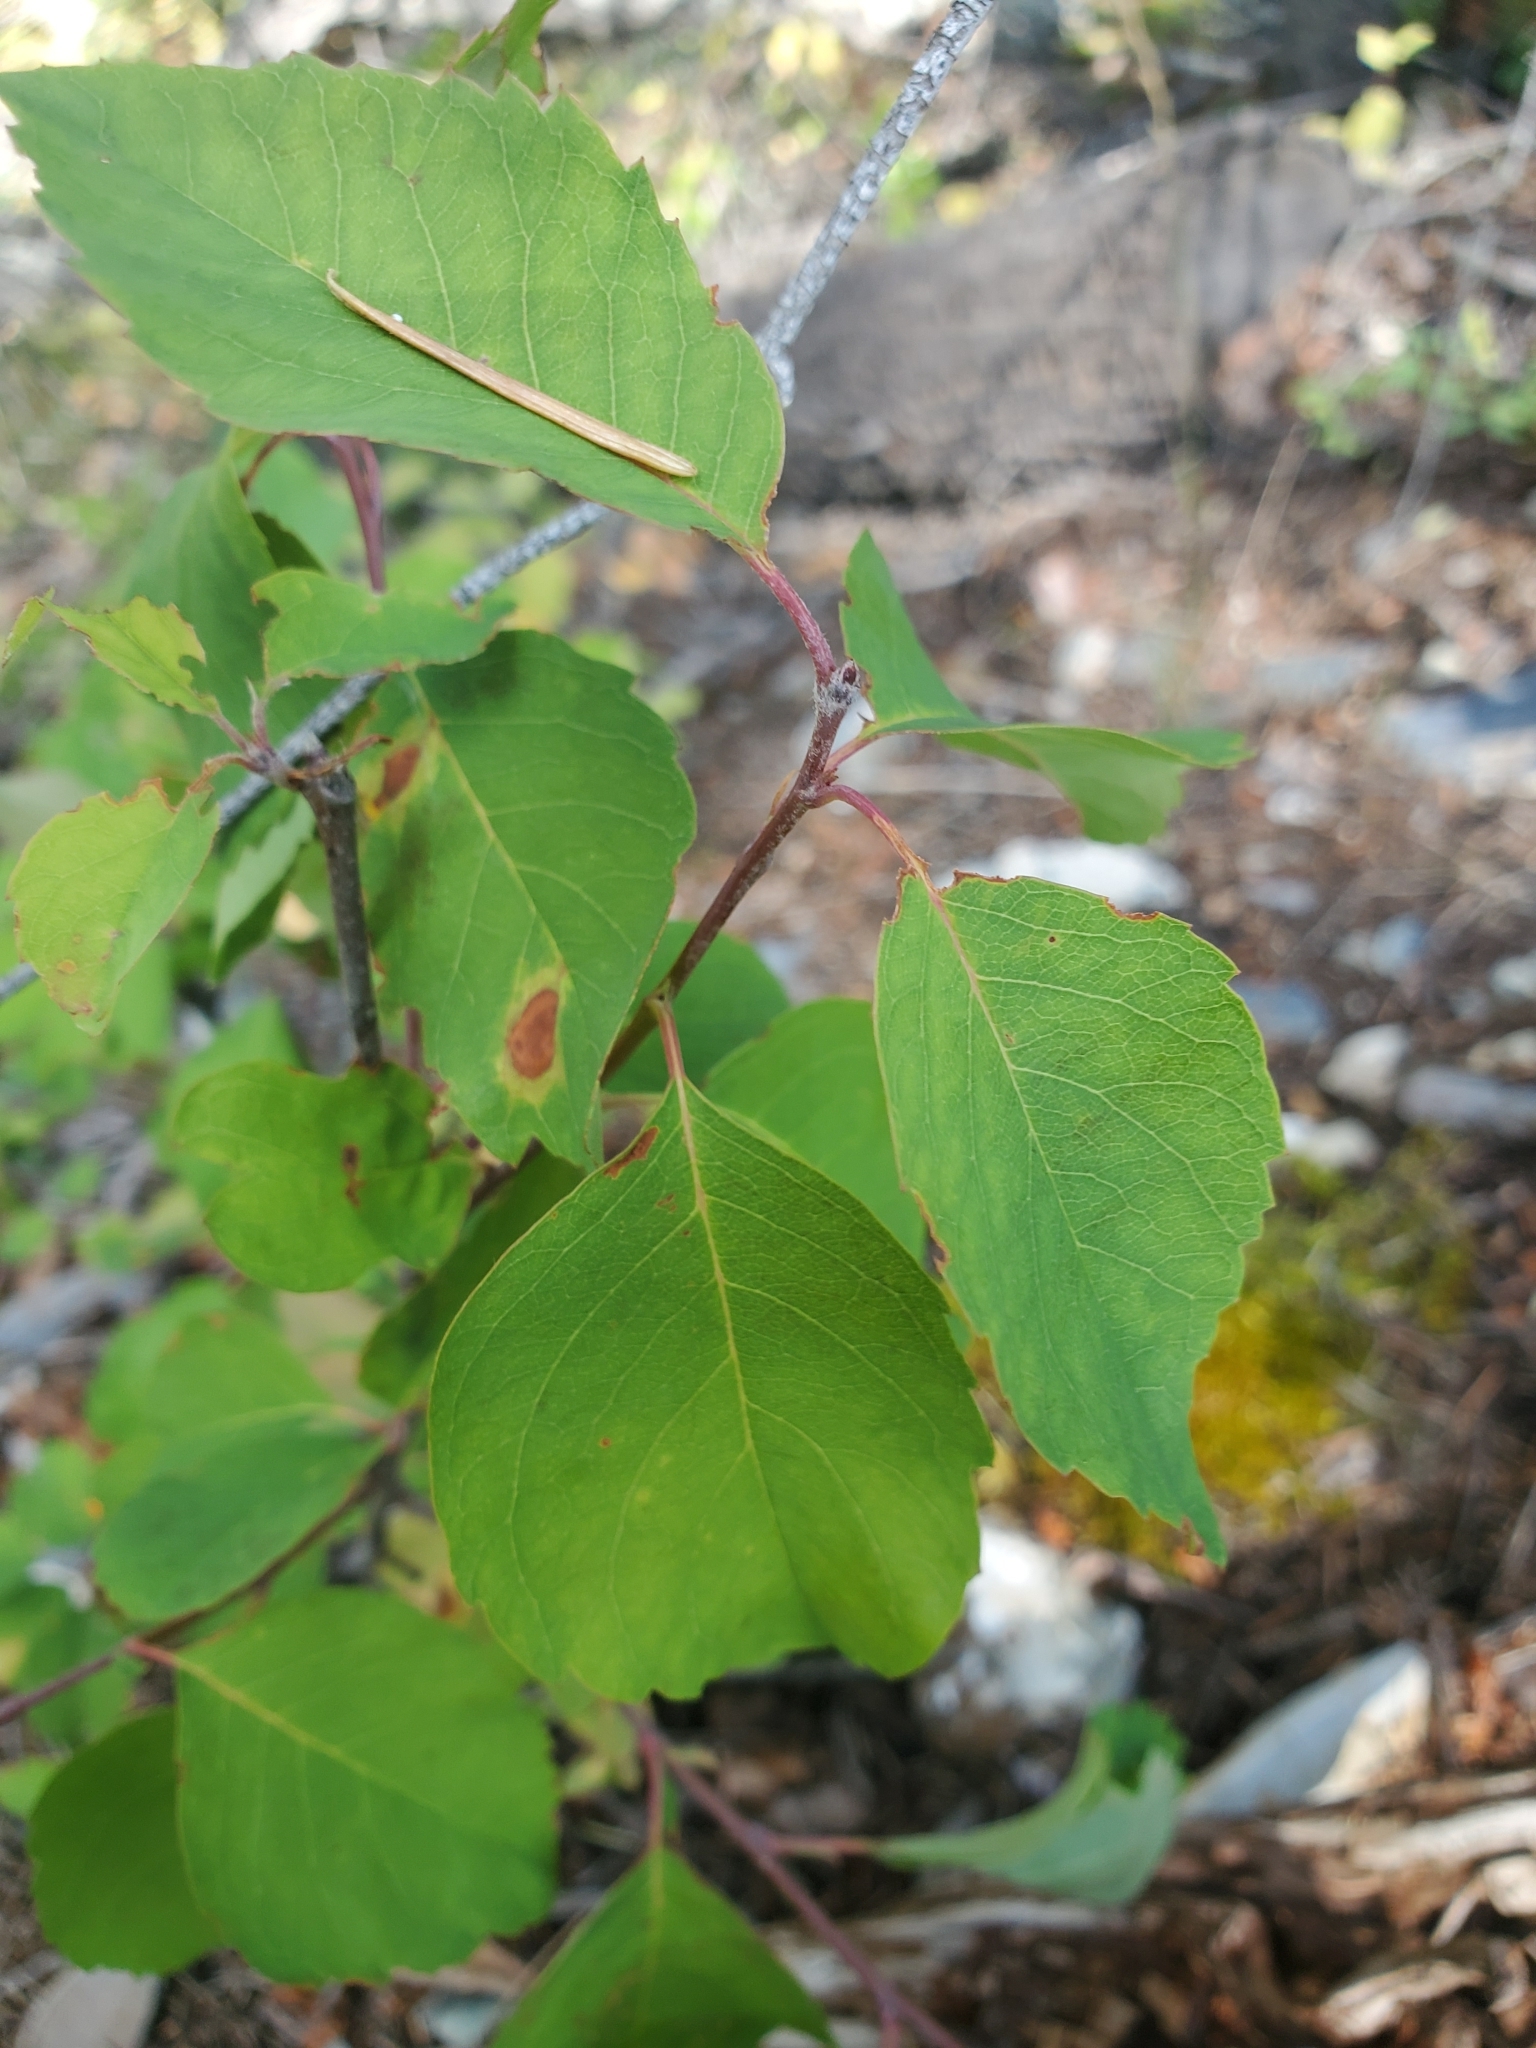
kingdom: Plantae
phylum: Tracheophyta
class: Magnoliopsida
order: Rosales
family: Rosaceae
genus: Amelanchier
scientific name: Amelanchier alnifolia
